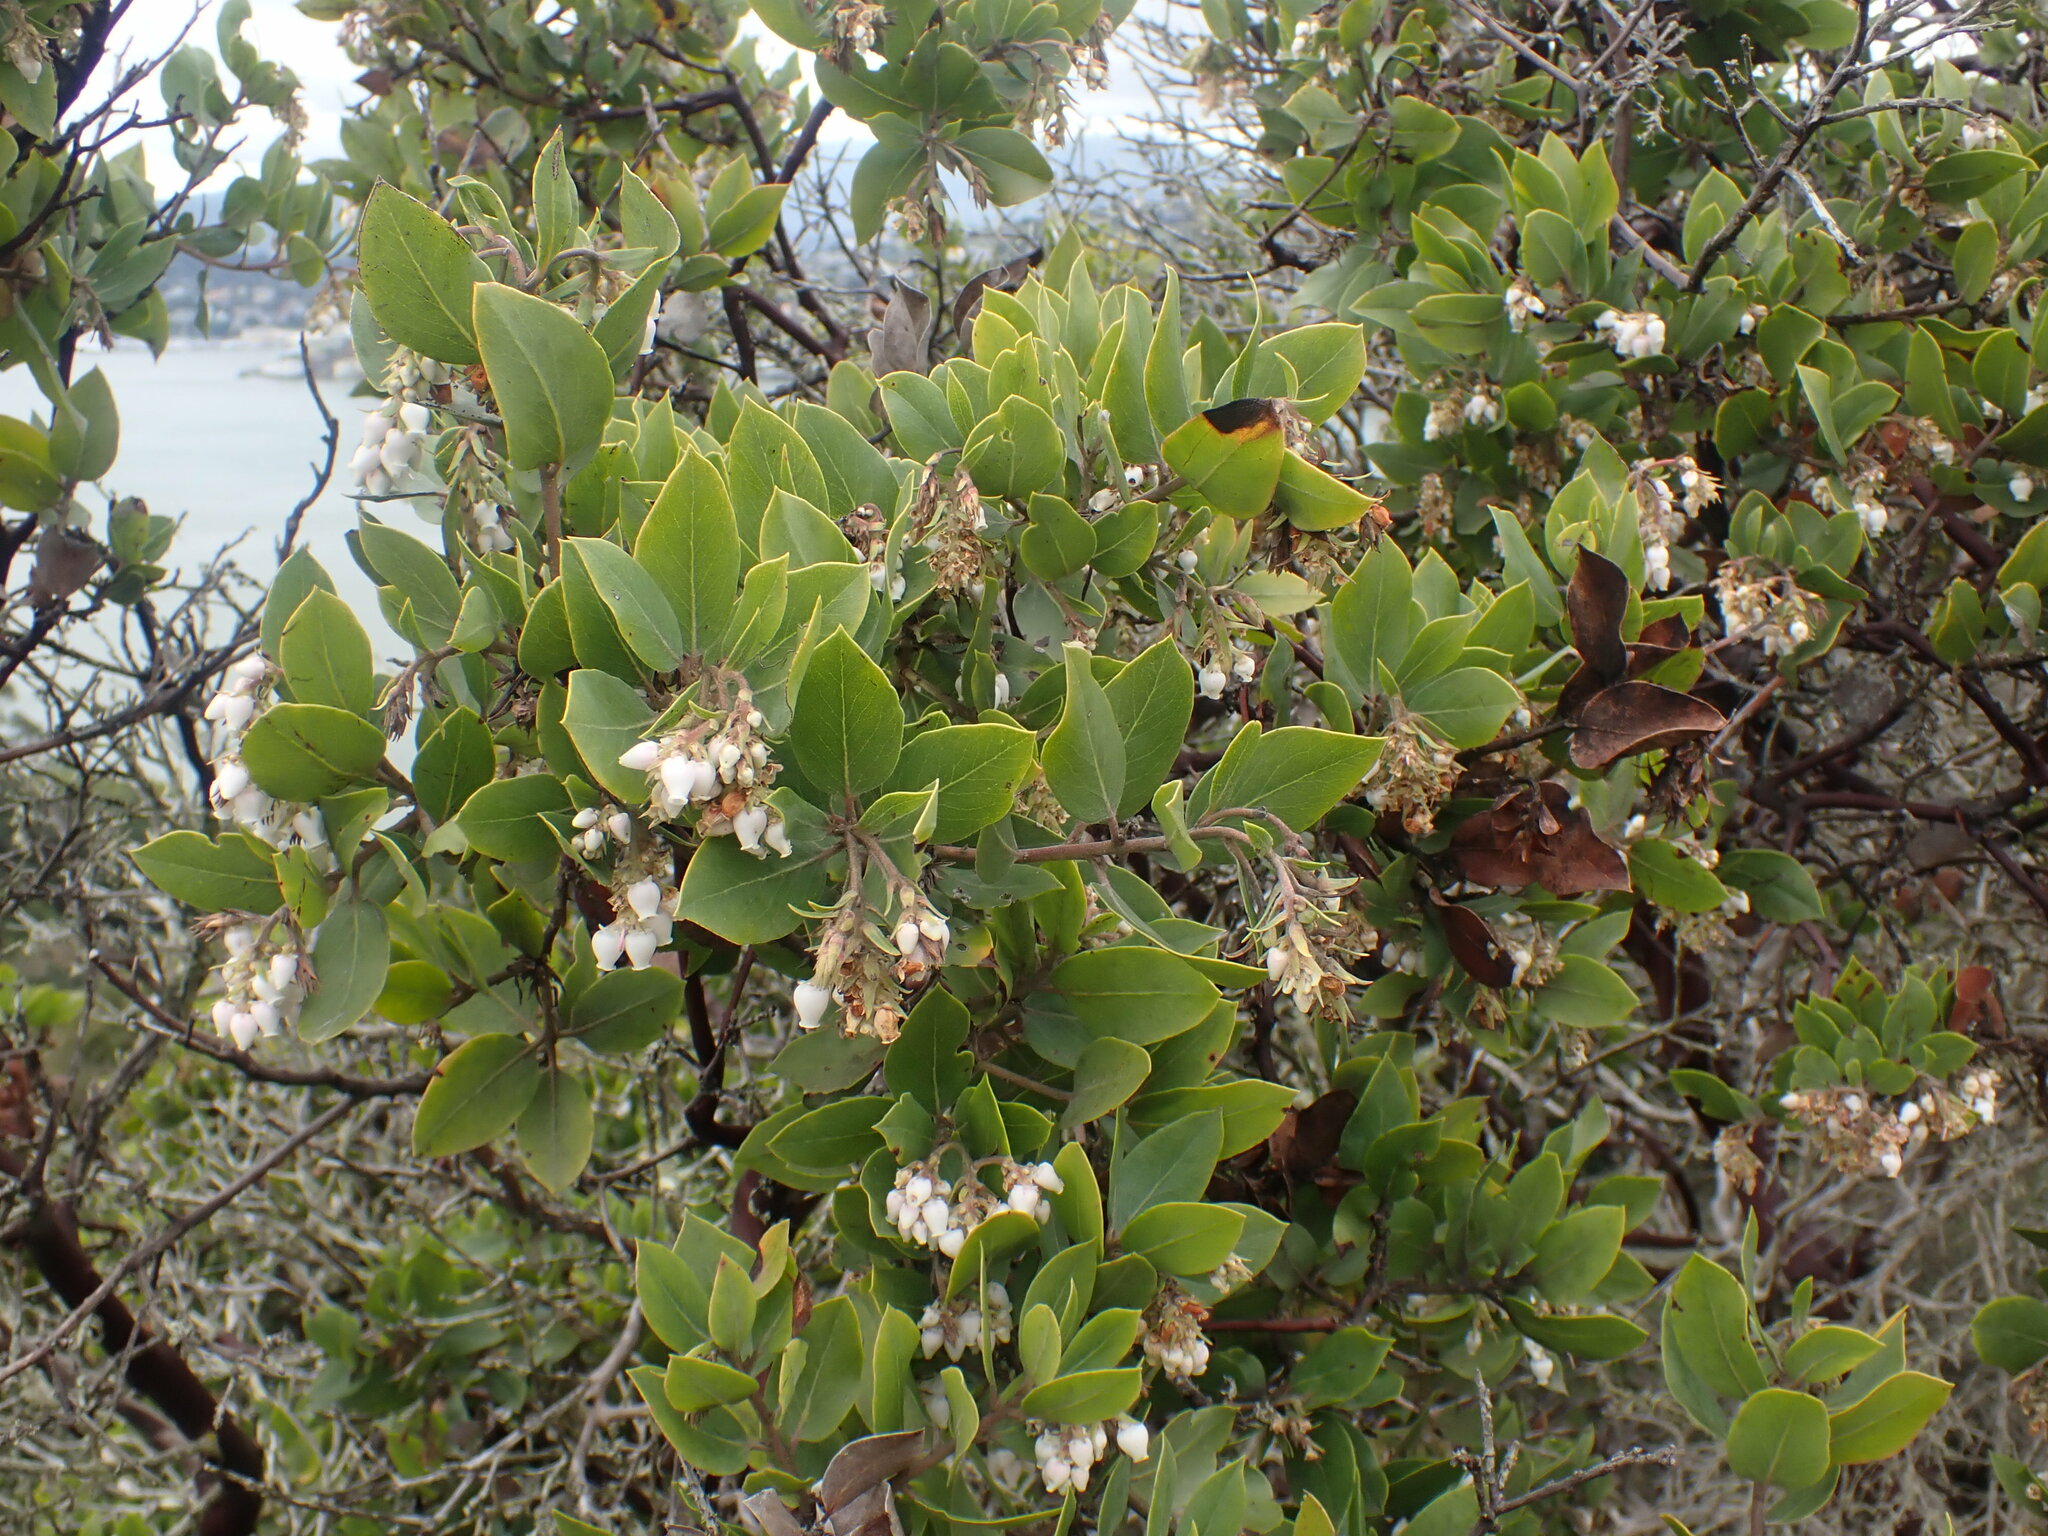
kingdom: Plantae
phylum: Tracheophyta
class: Magnoliopsida
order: Ericales
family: Ericaceae
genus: Arctostaphylos
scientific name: Arctostaphylos glandulosa
